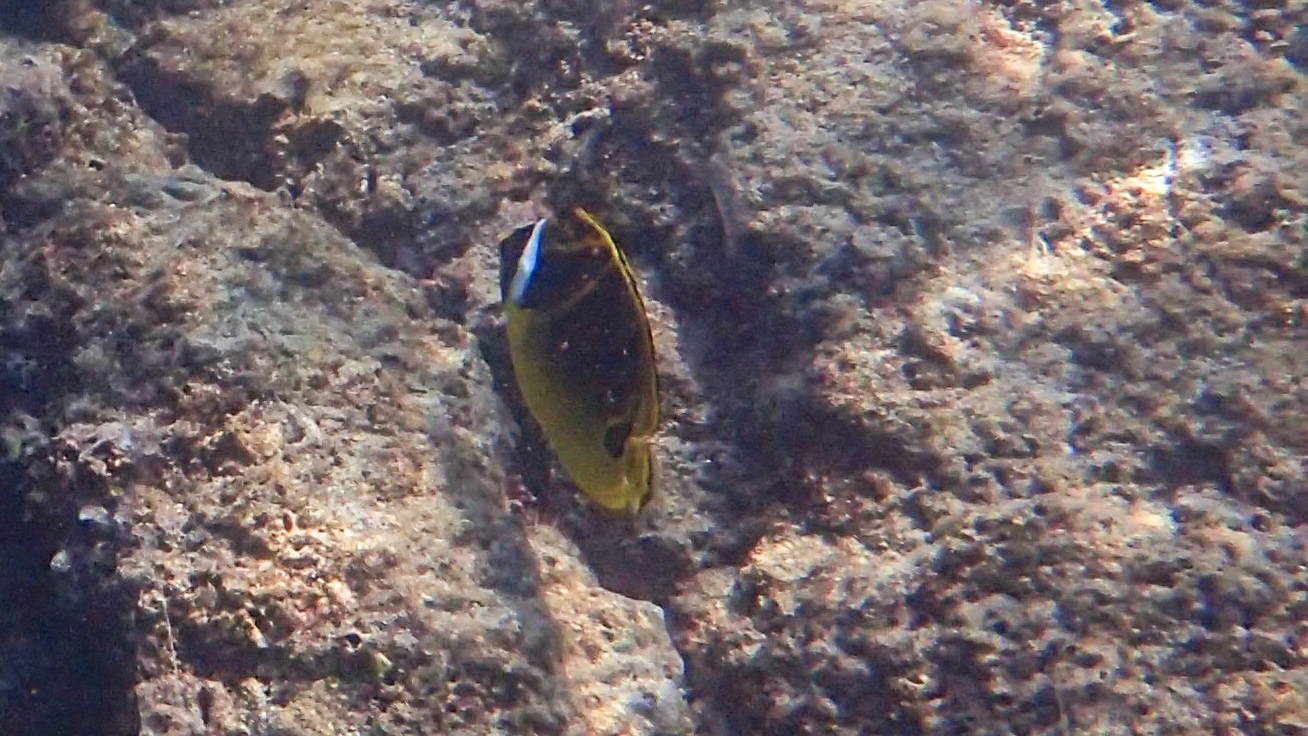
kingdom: Animalia
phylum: Chordata
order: Perciformes
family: Chaetodontidae
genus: Chaetodon
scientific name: Chaetodon lunula
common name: Raccoon butterflyfish
